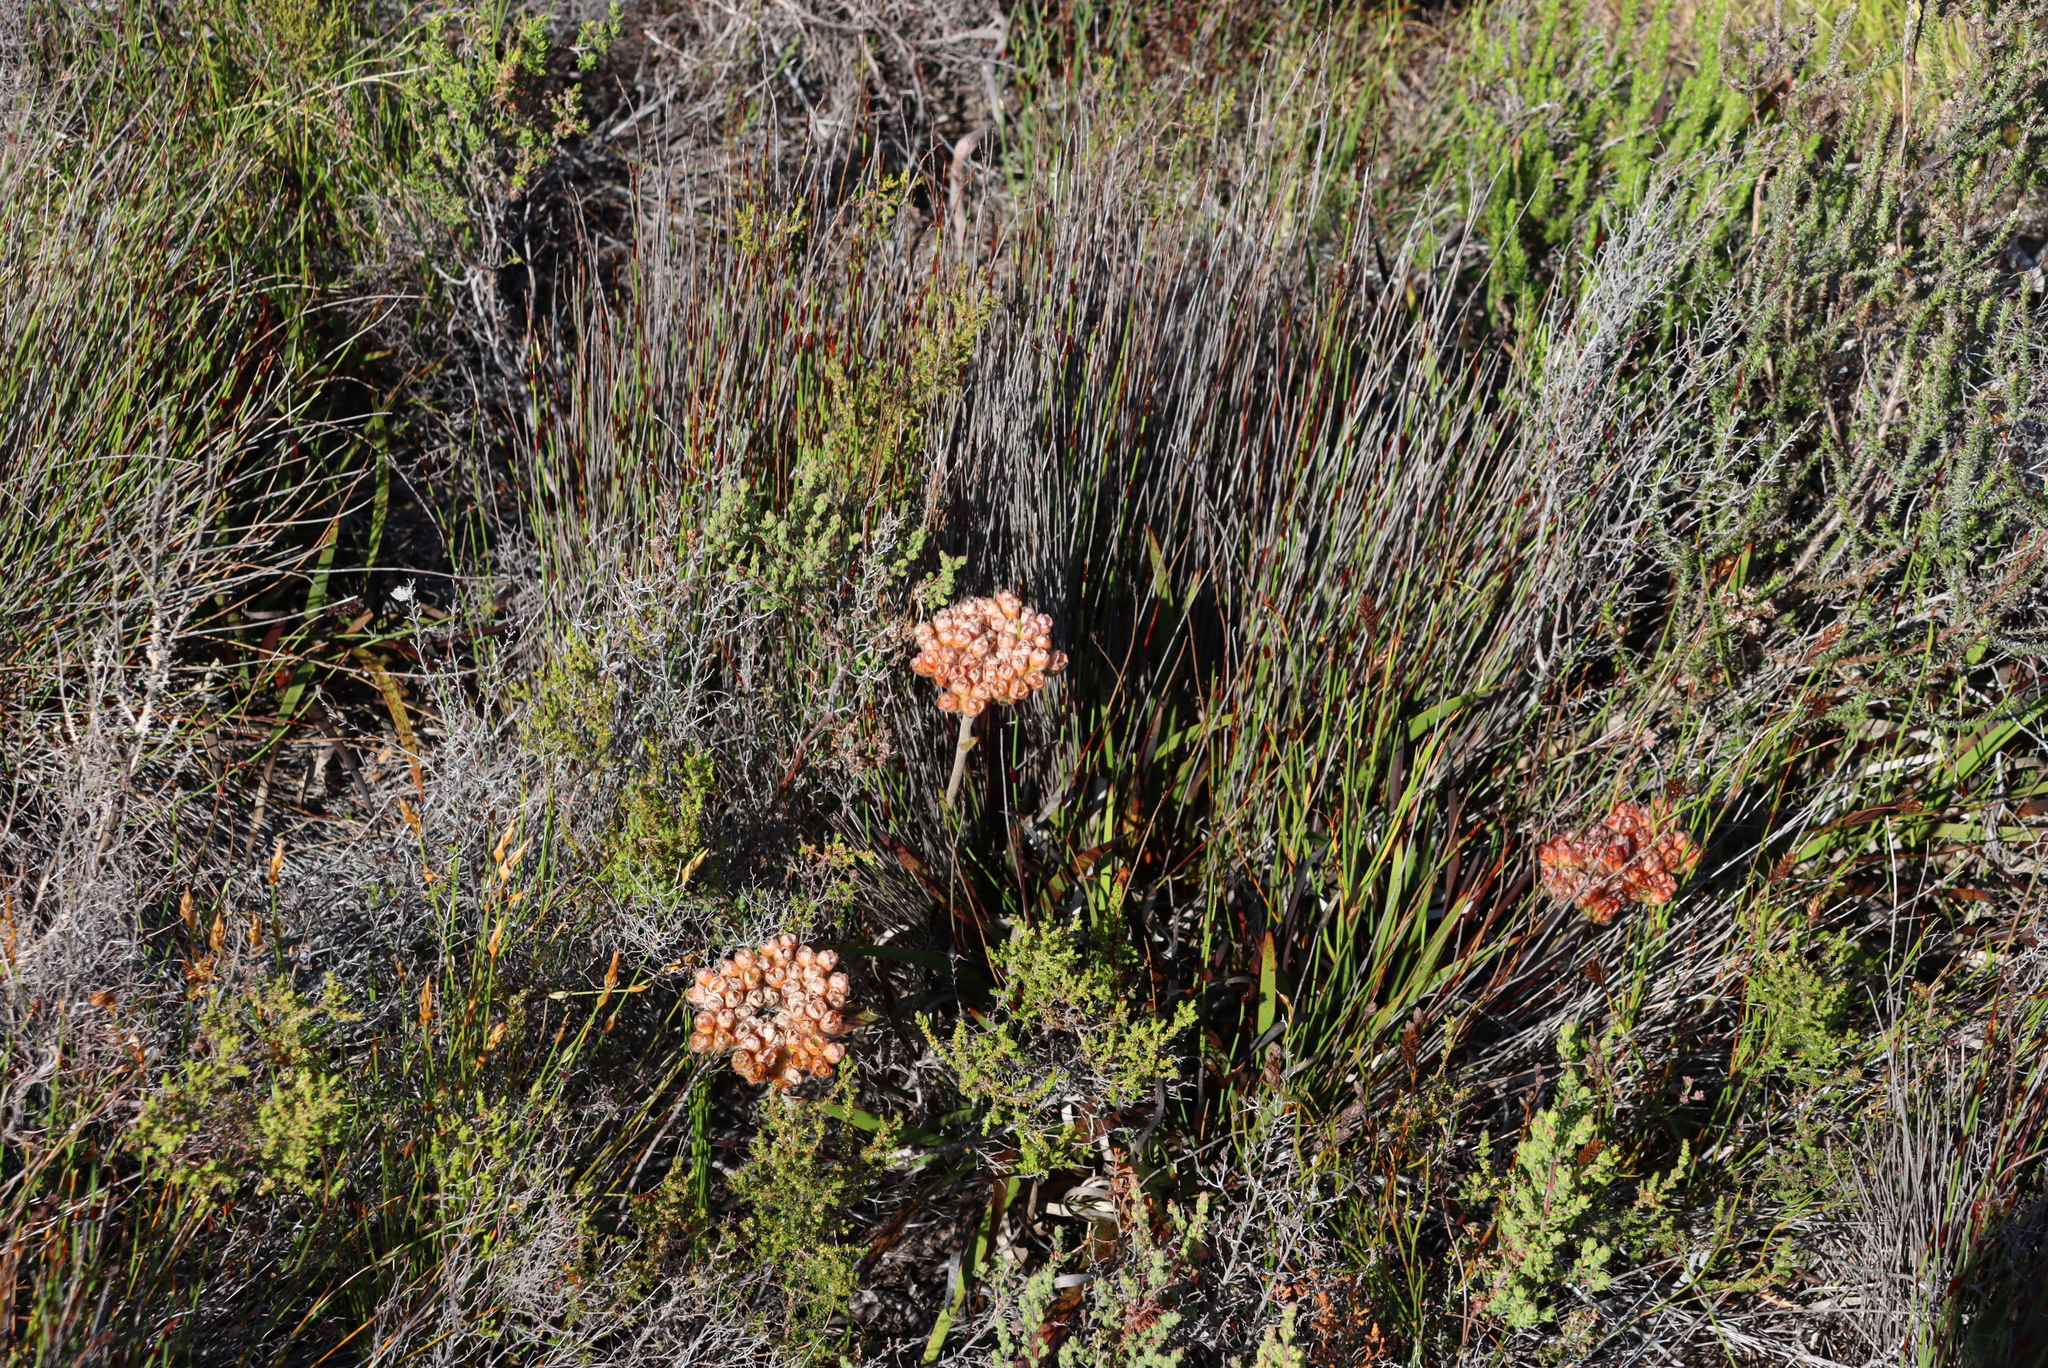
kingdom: Plantae
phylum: Tracheophyta
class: Liliopsida
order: Commelinales
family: Haemodoraceae
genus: Dilatris
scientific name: Dilatris pillansii
